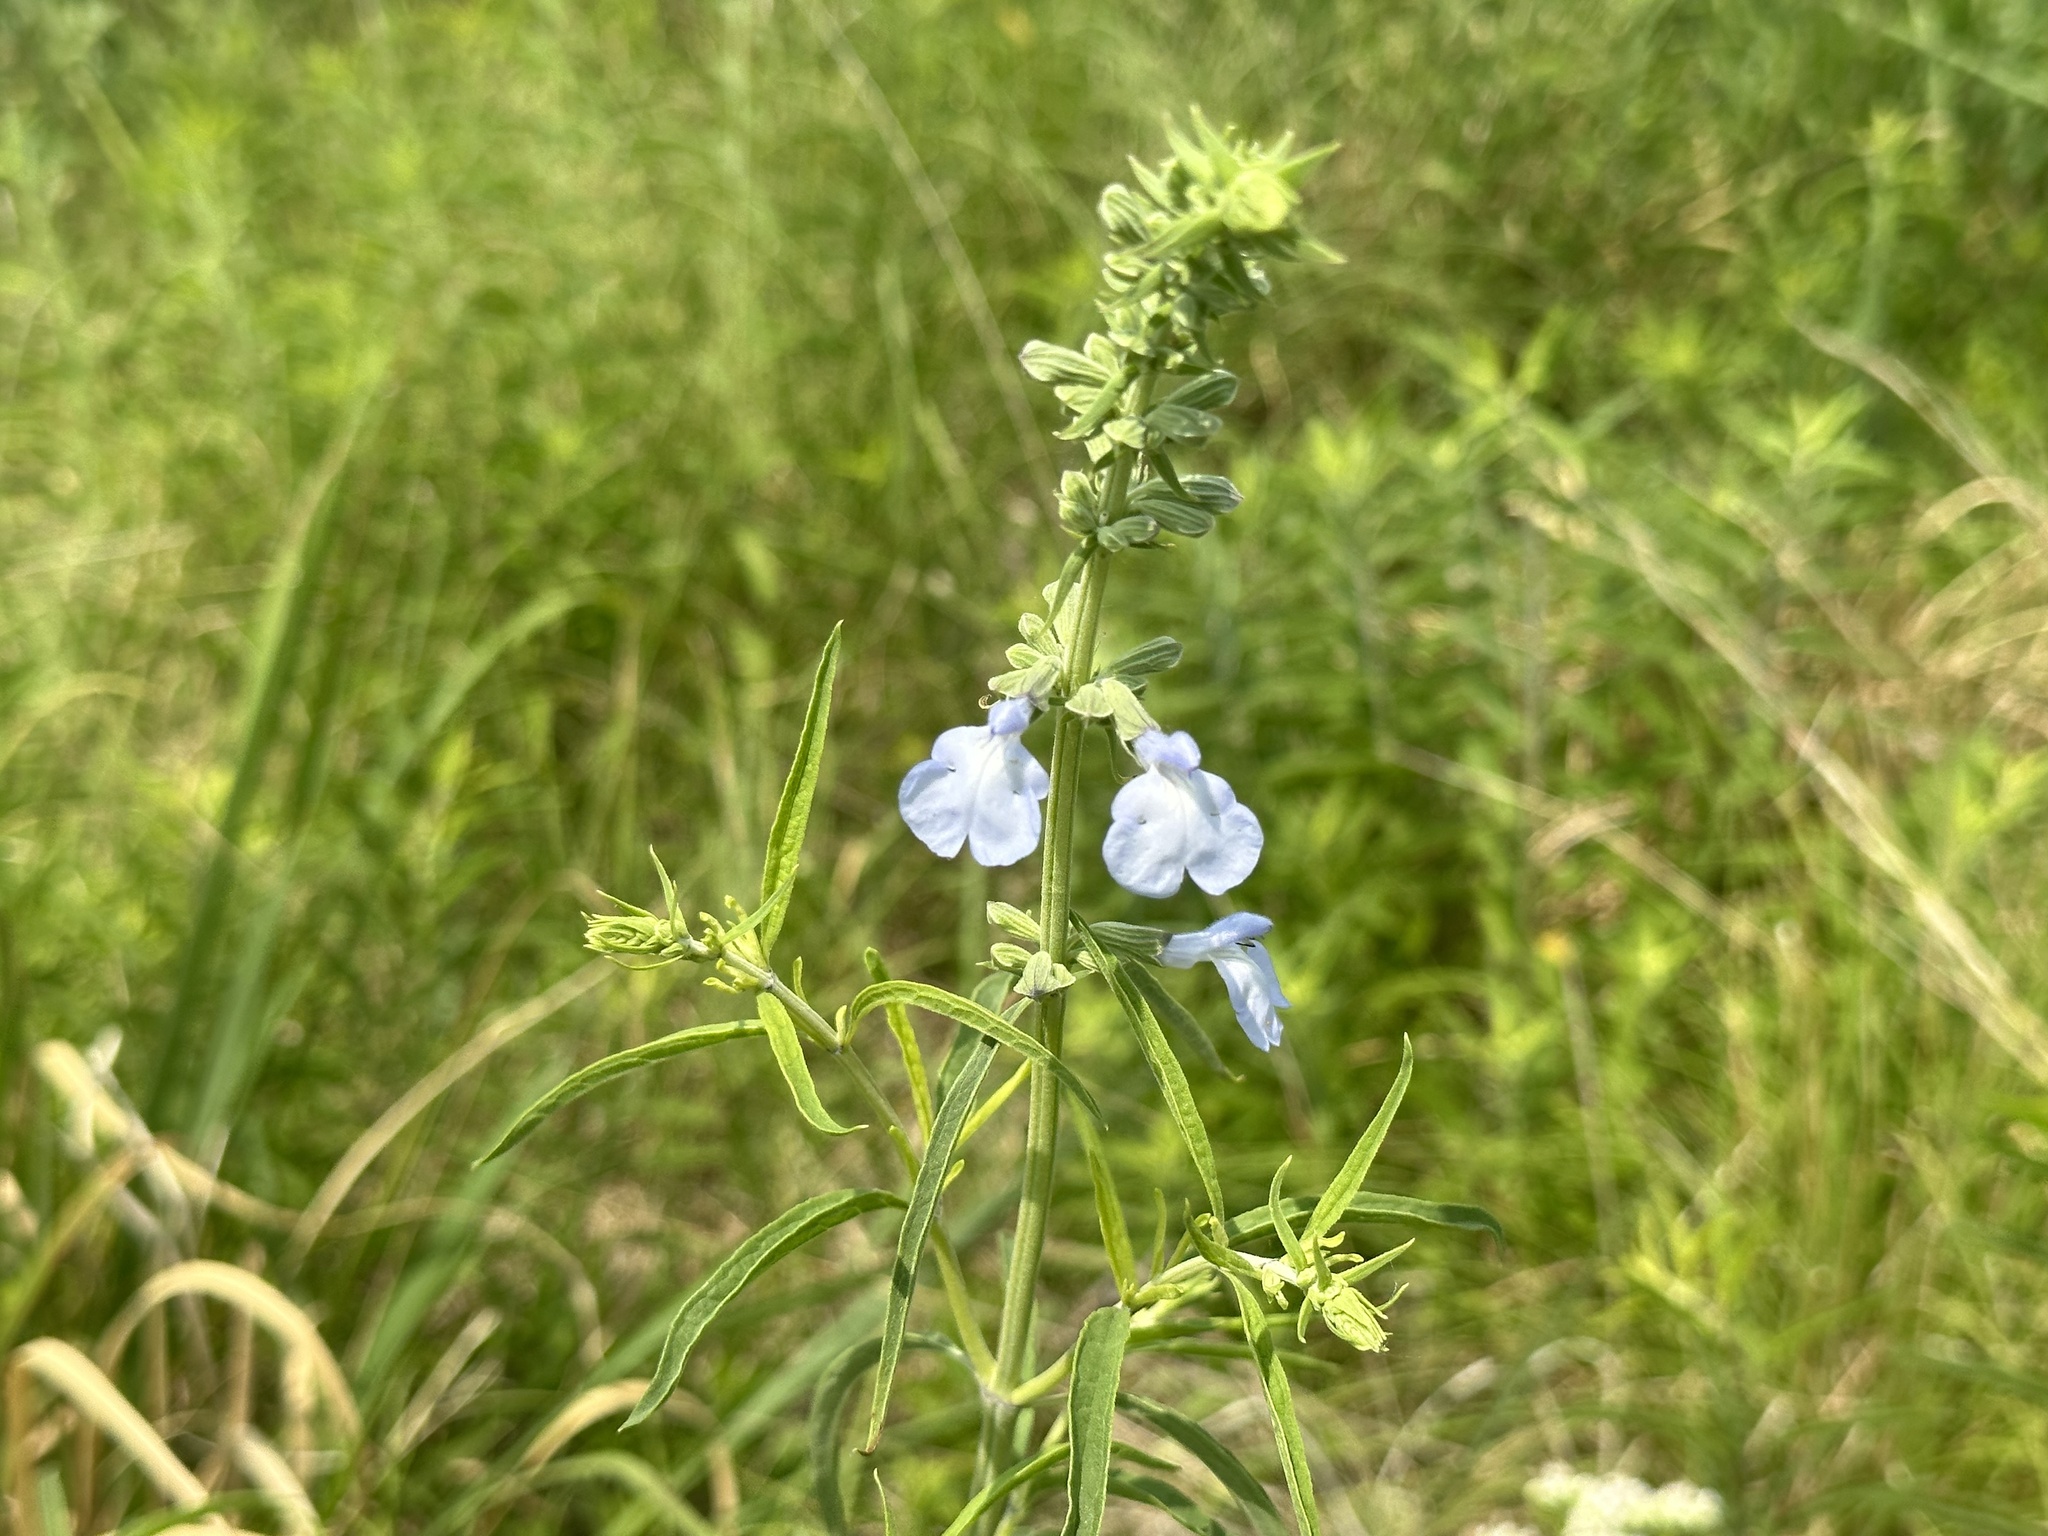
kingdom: Plantae
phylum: Tracheophyta
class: Magnoliopsida
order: Lamiales
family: Lamiaceae
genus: Salvia
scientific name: Salvia azurea
